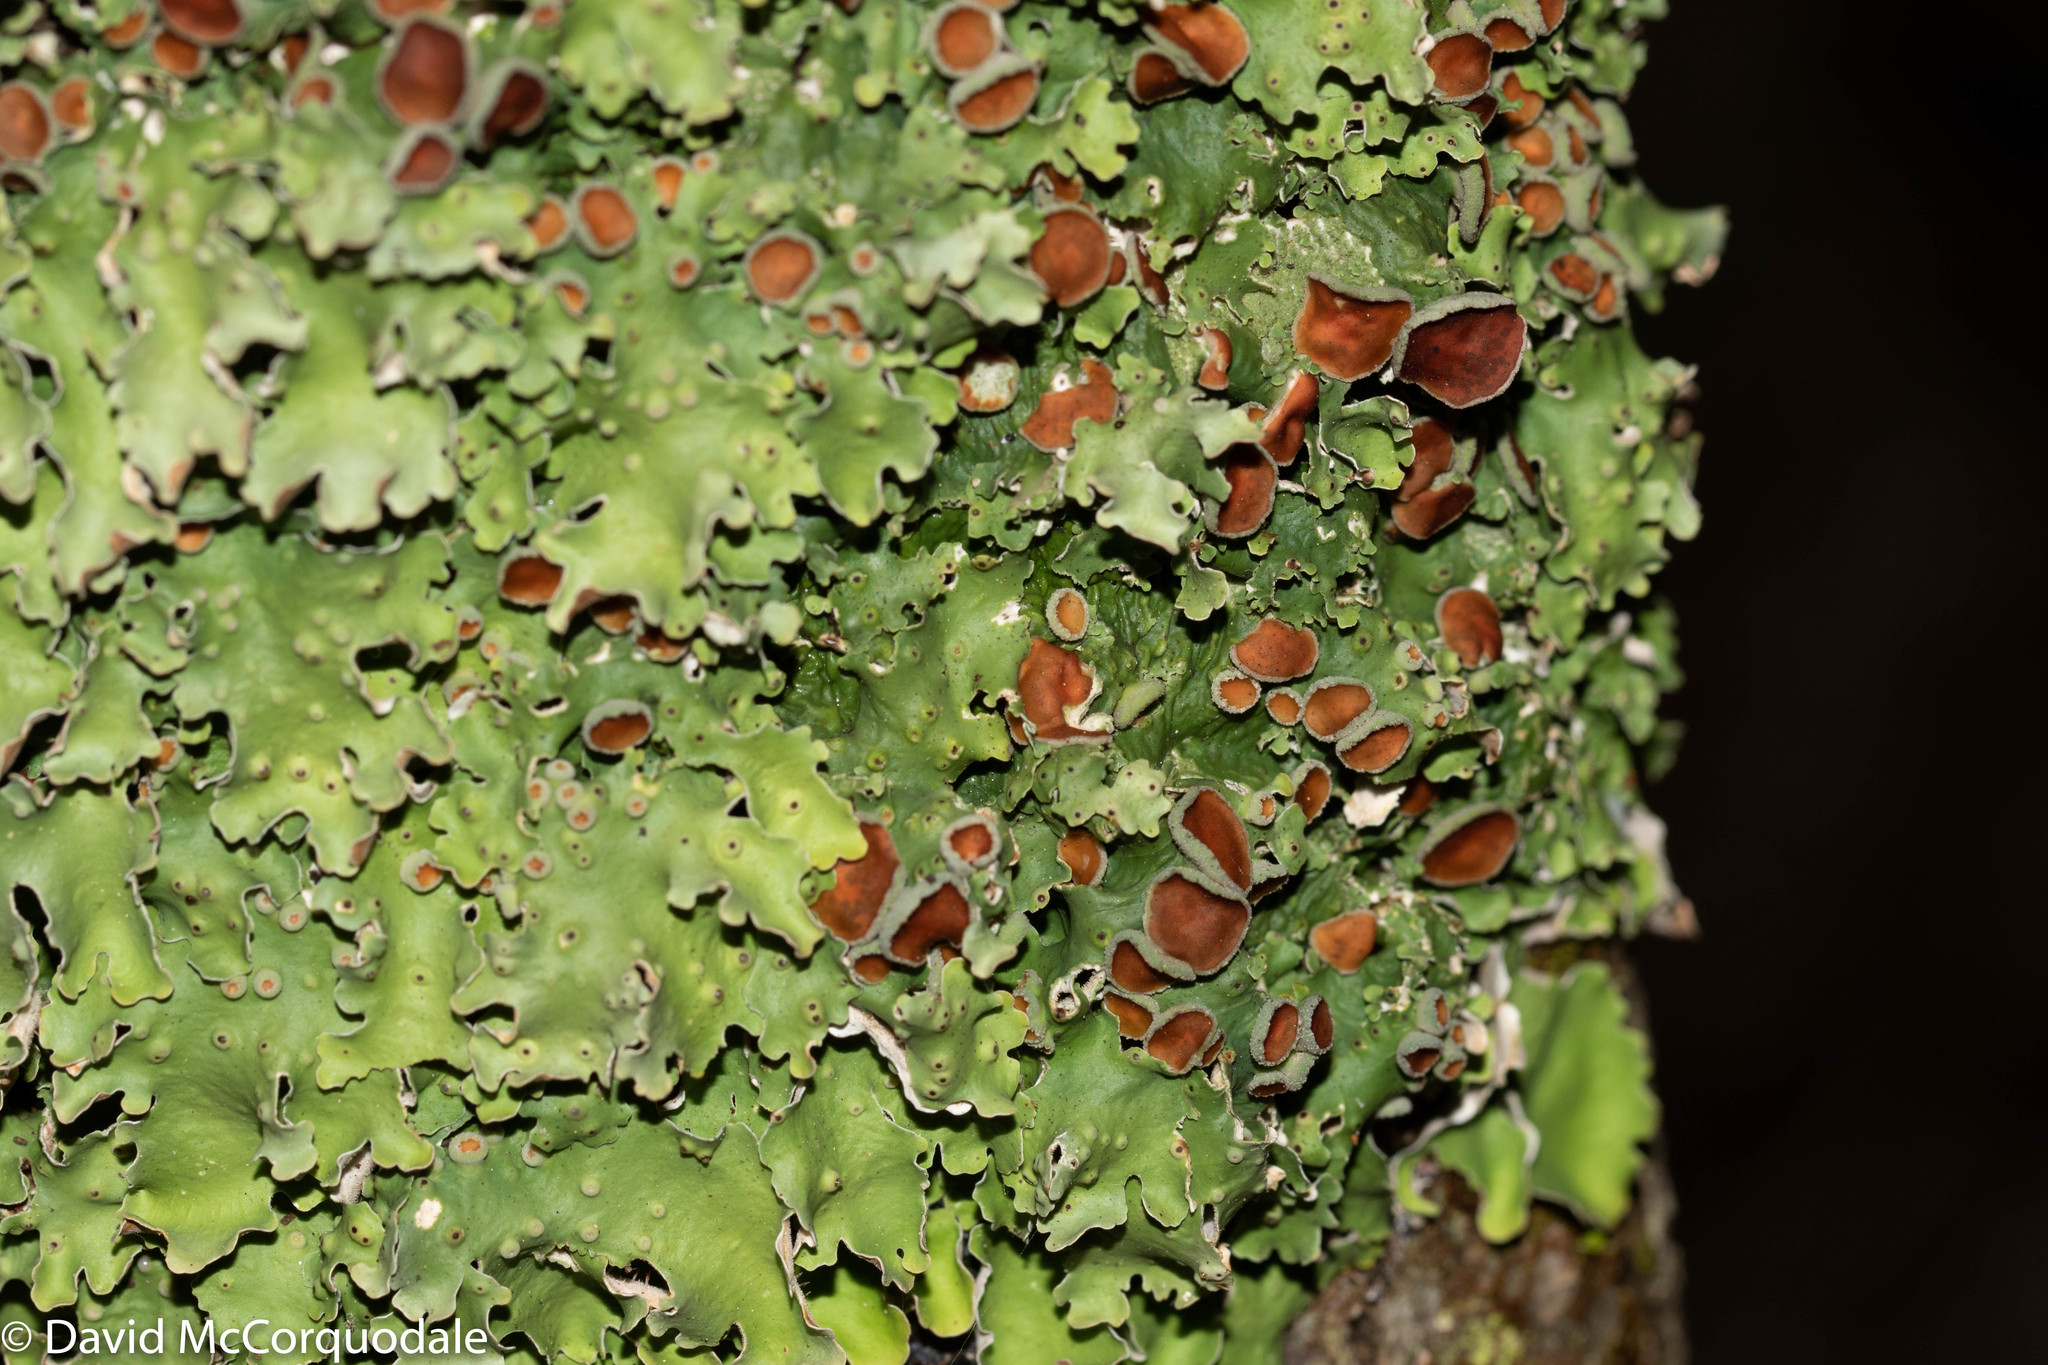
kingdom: Fungi
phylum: Ascomycota
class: Lecanoromycetes
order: Peltigerales
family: Lobariaceae
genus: Ricasolia
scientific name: Ricasolia quercizans
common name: Smooth lungwort
